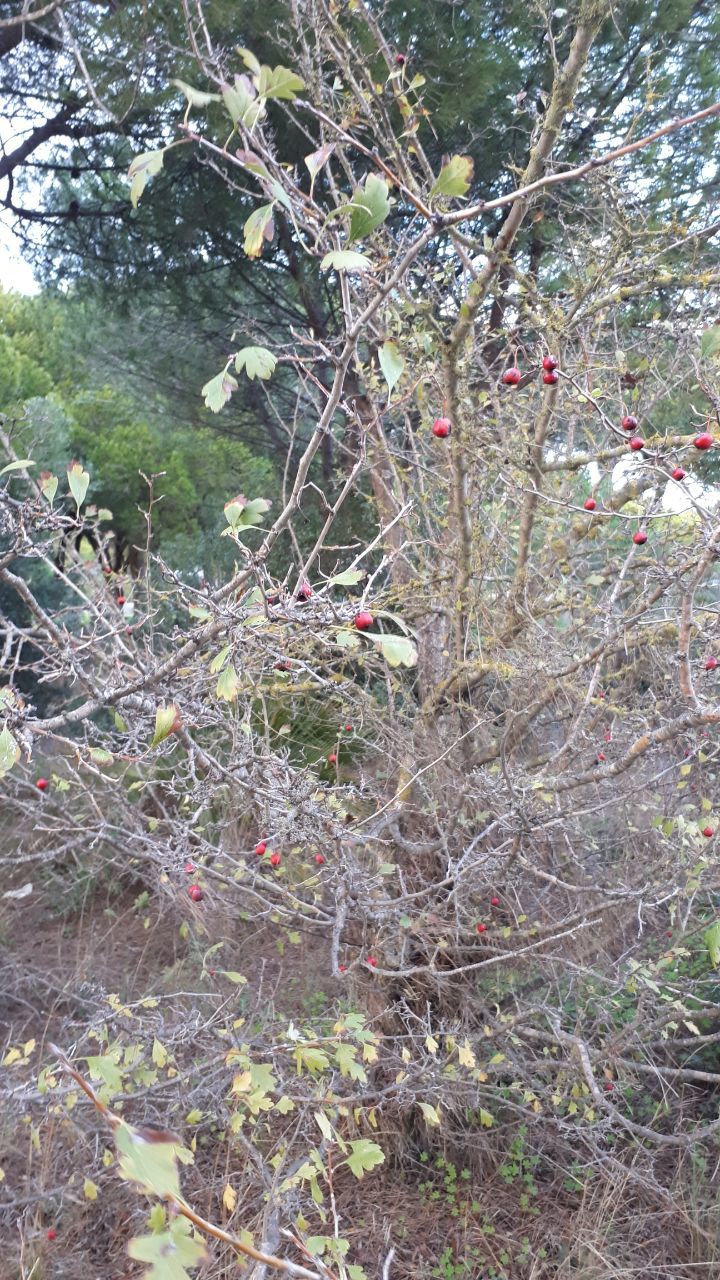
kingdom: Plantae
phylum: Tracheophyta
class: Magnoliopsida
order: Rosales
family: Rosaceae
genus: Crataegus
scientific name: Crataegus monogyna
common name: Hawthorn
